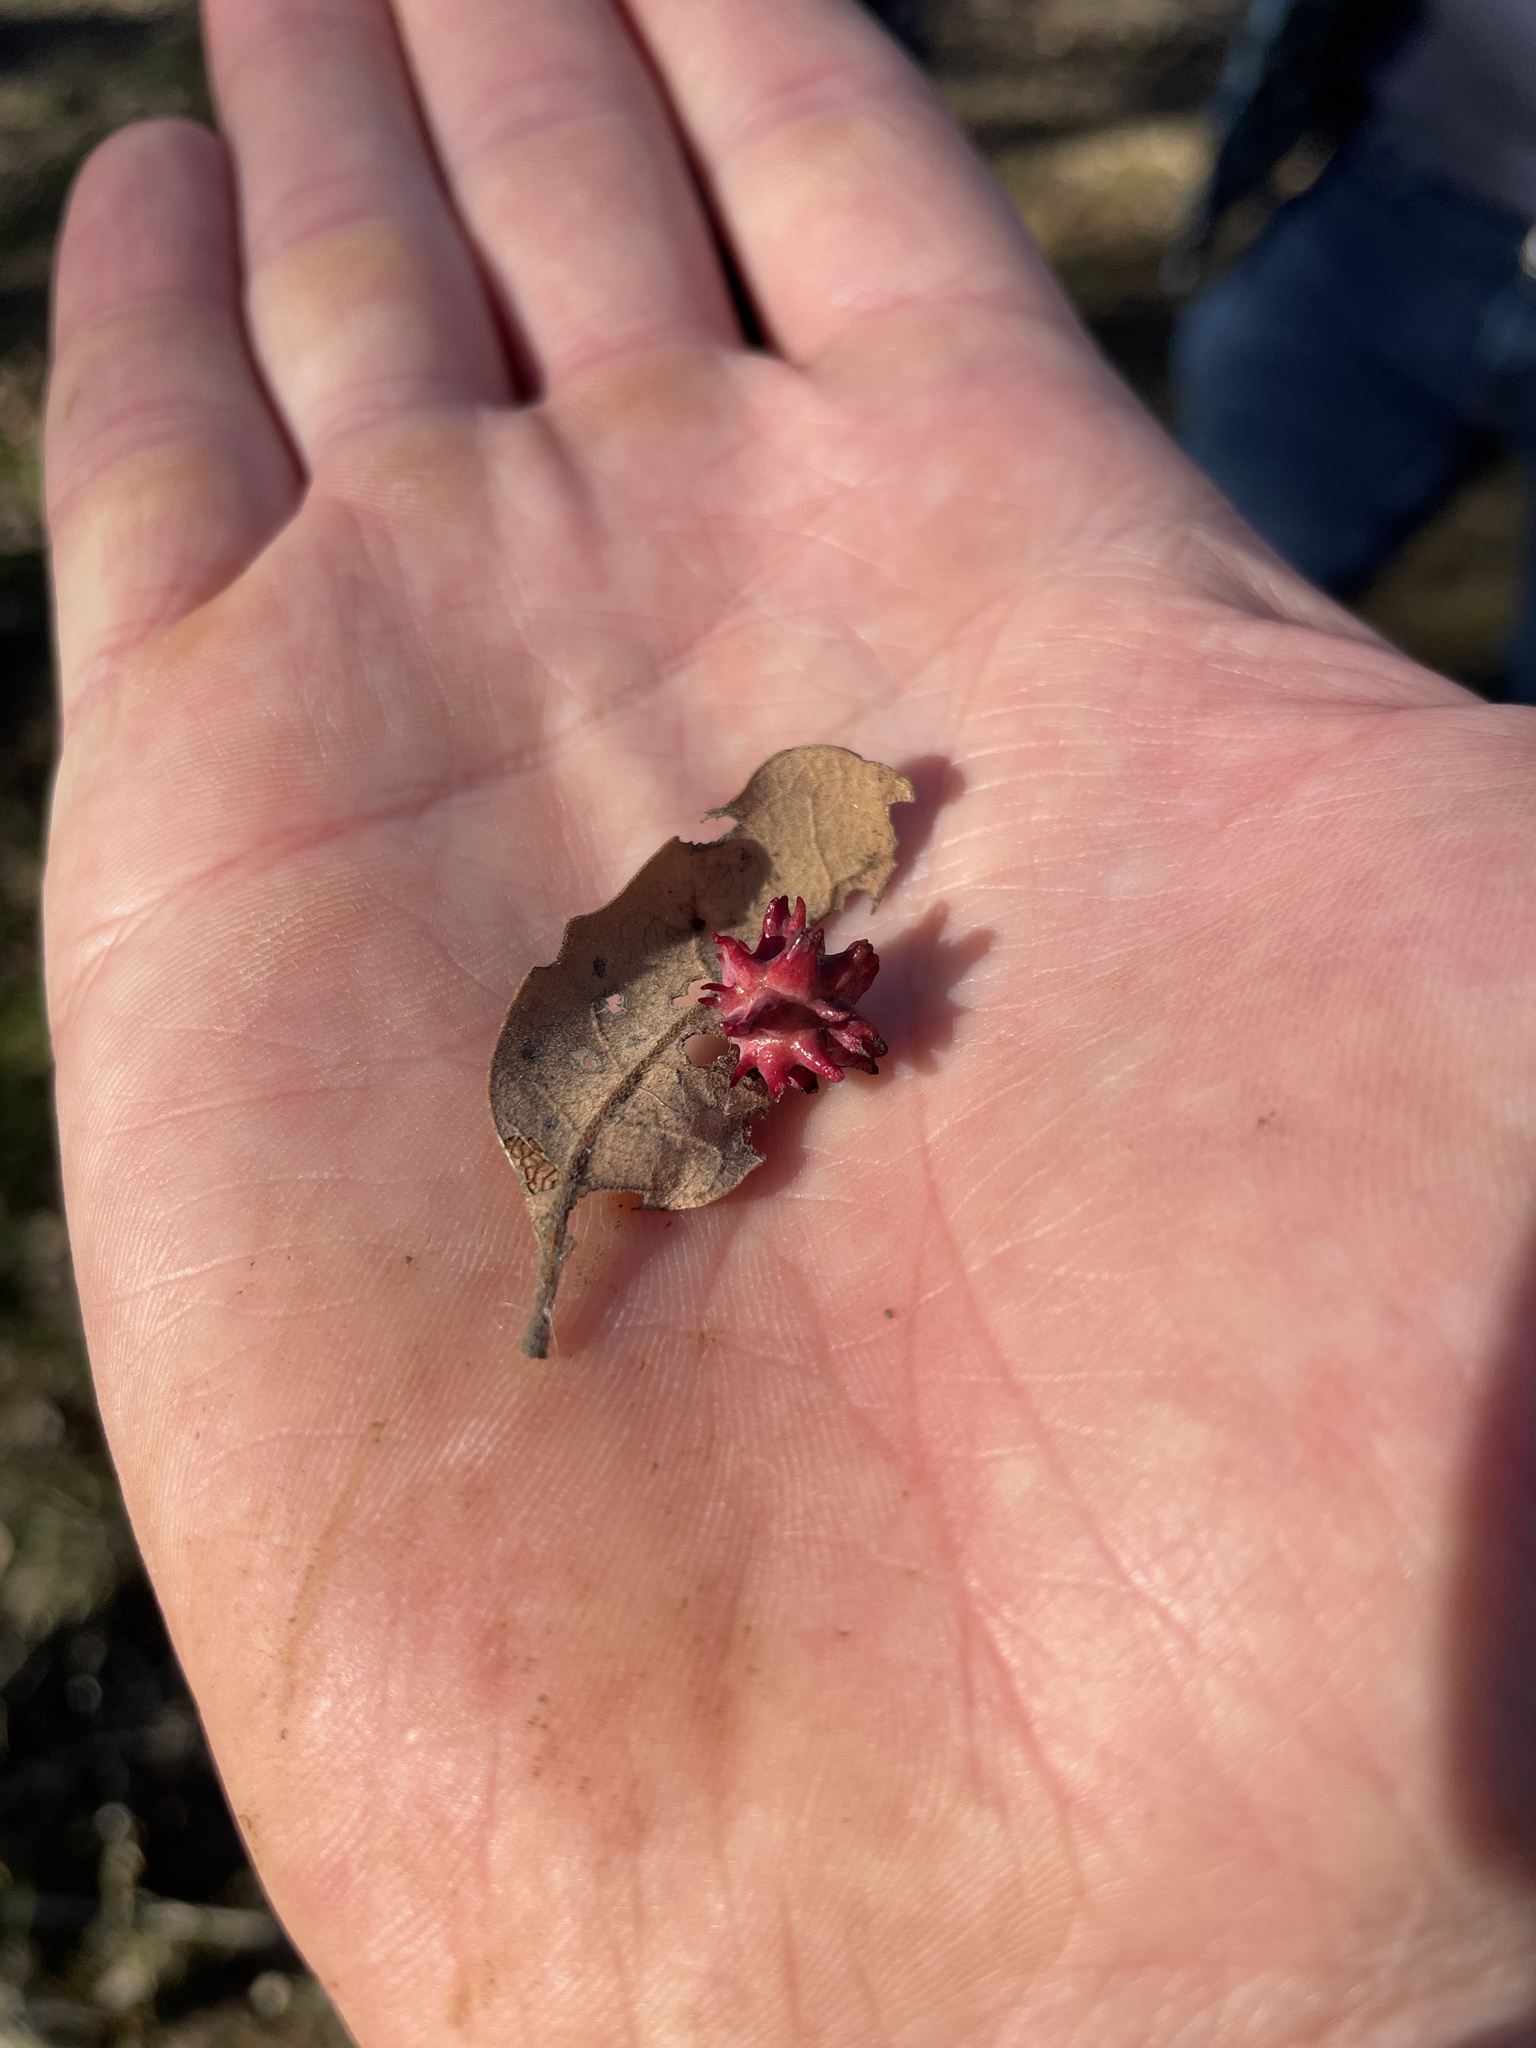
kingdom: Animalia
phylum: Arthropoda
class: Insecta
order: Hymenoptera
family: Cynipidae
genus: Cynips
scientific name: Cynips
